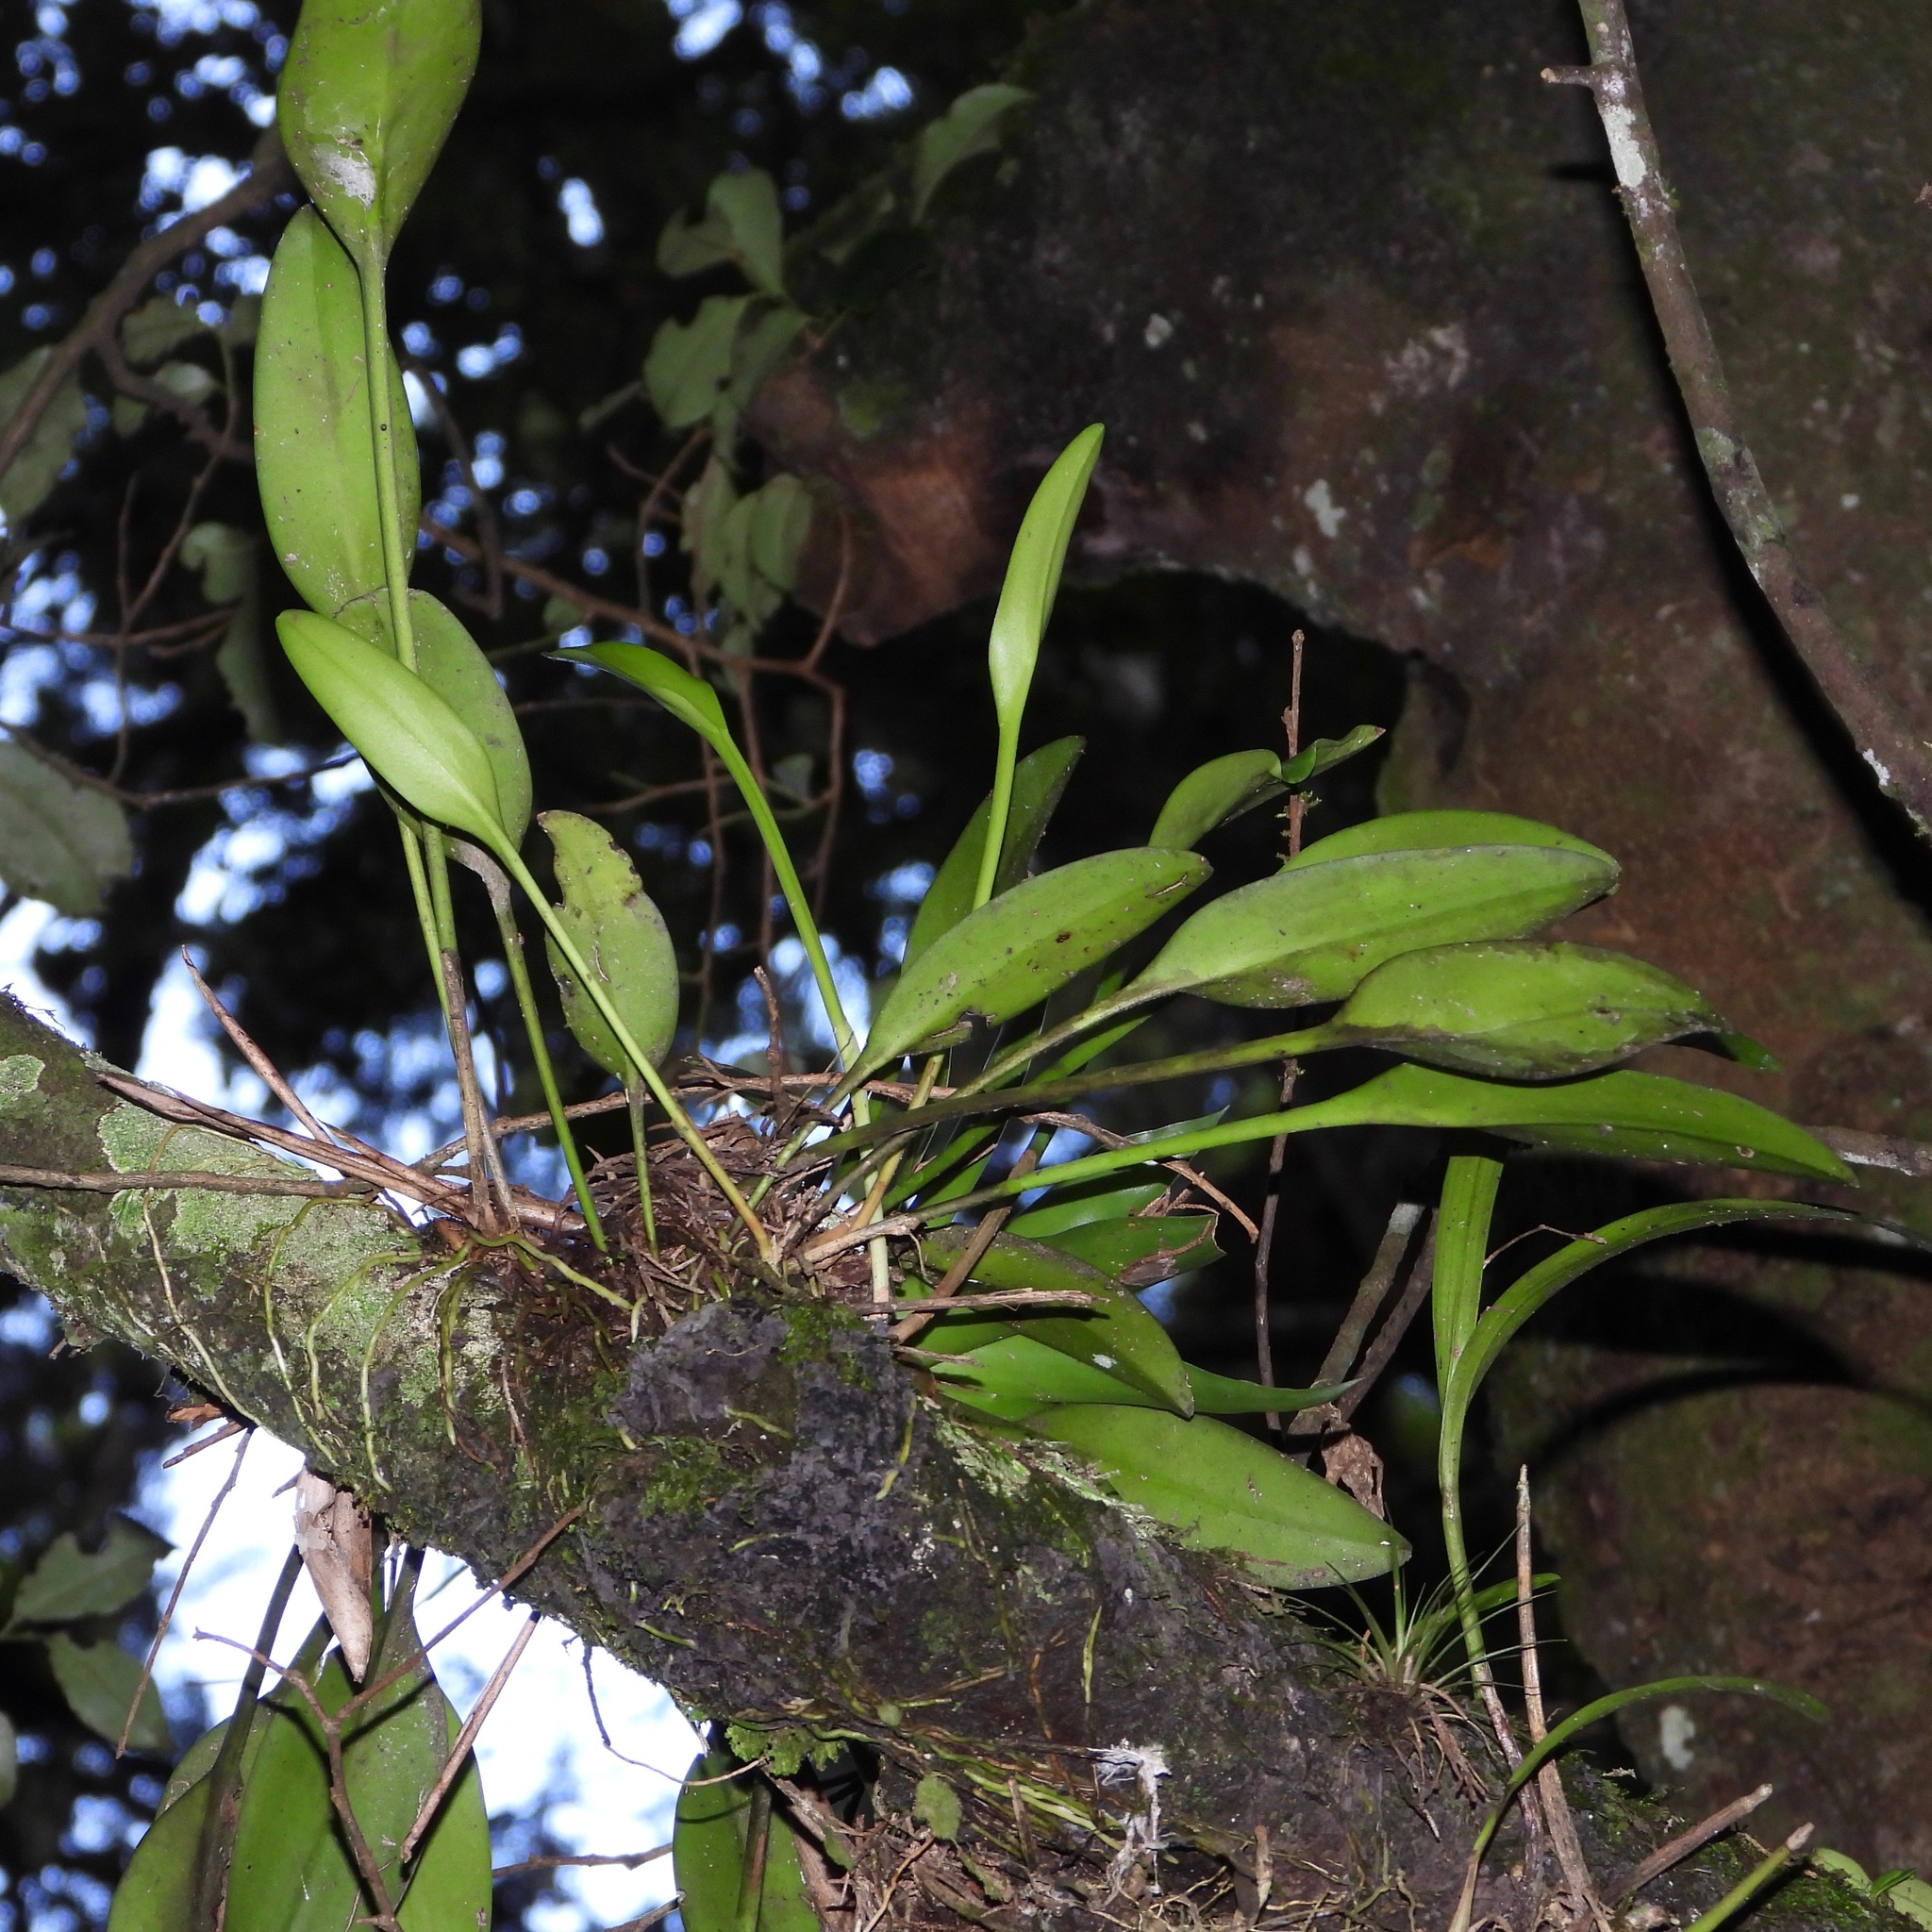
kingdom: Plantae
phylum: Tracheophyta
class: Liliopsida
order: Asparagales
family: Orchidaceae
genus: Acianthera
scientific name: Acianthera circumplexa
